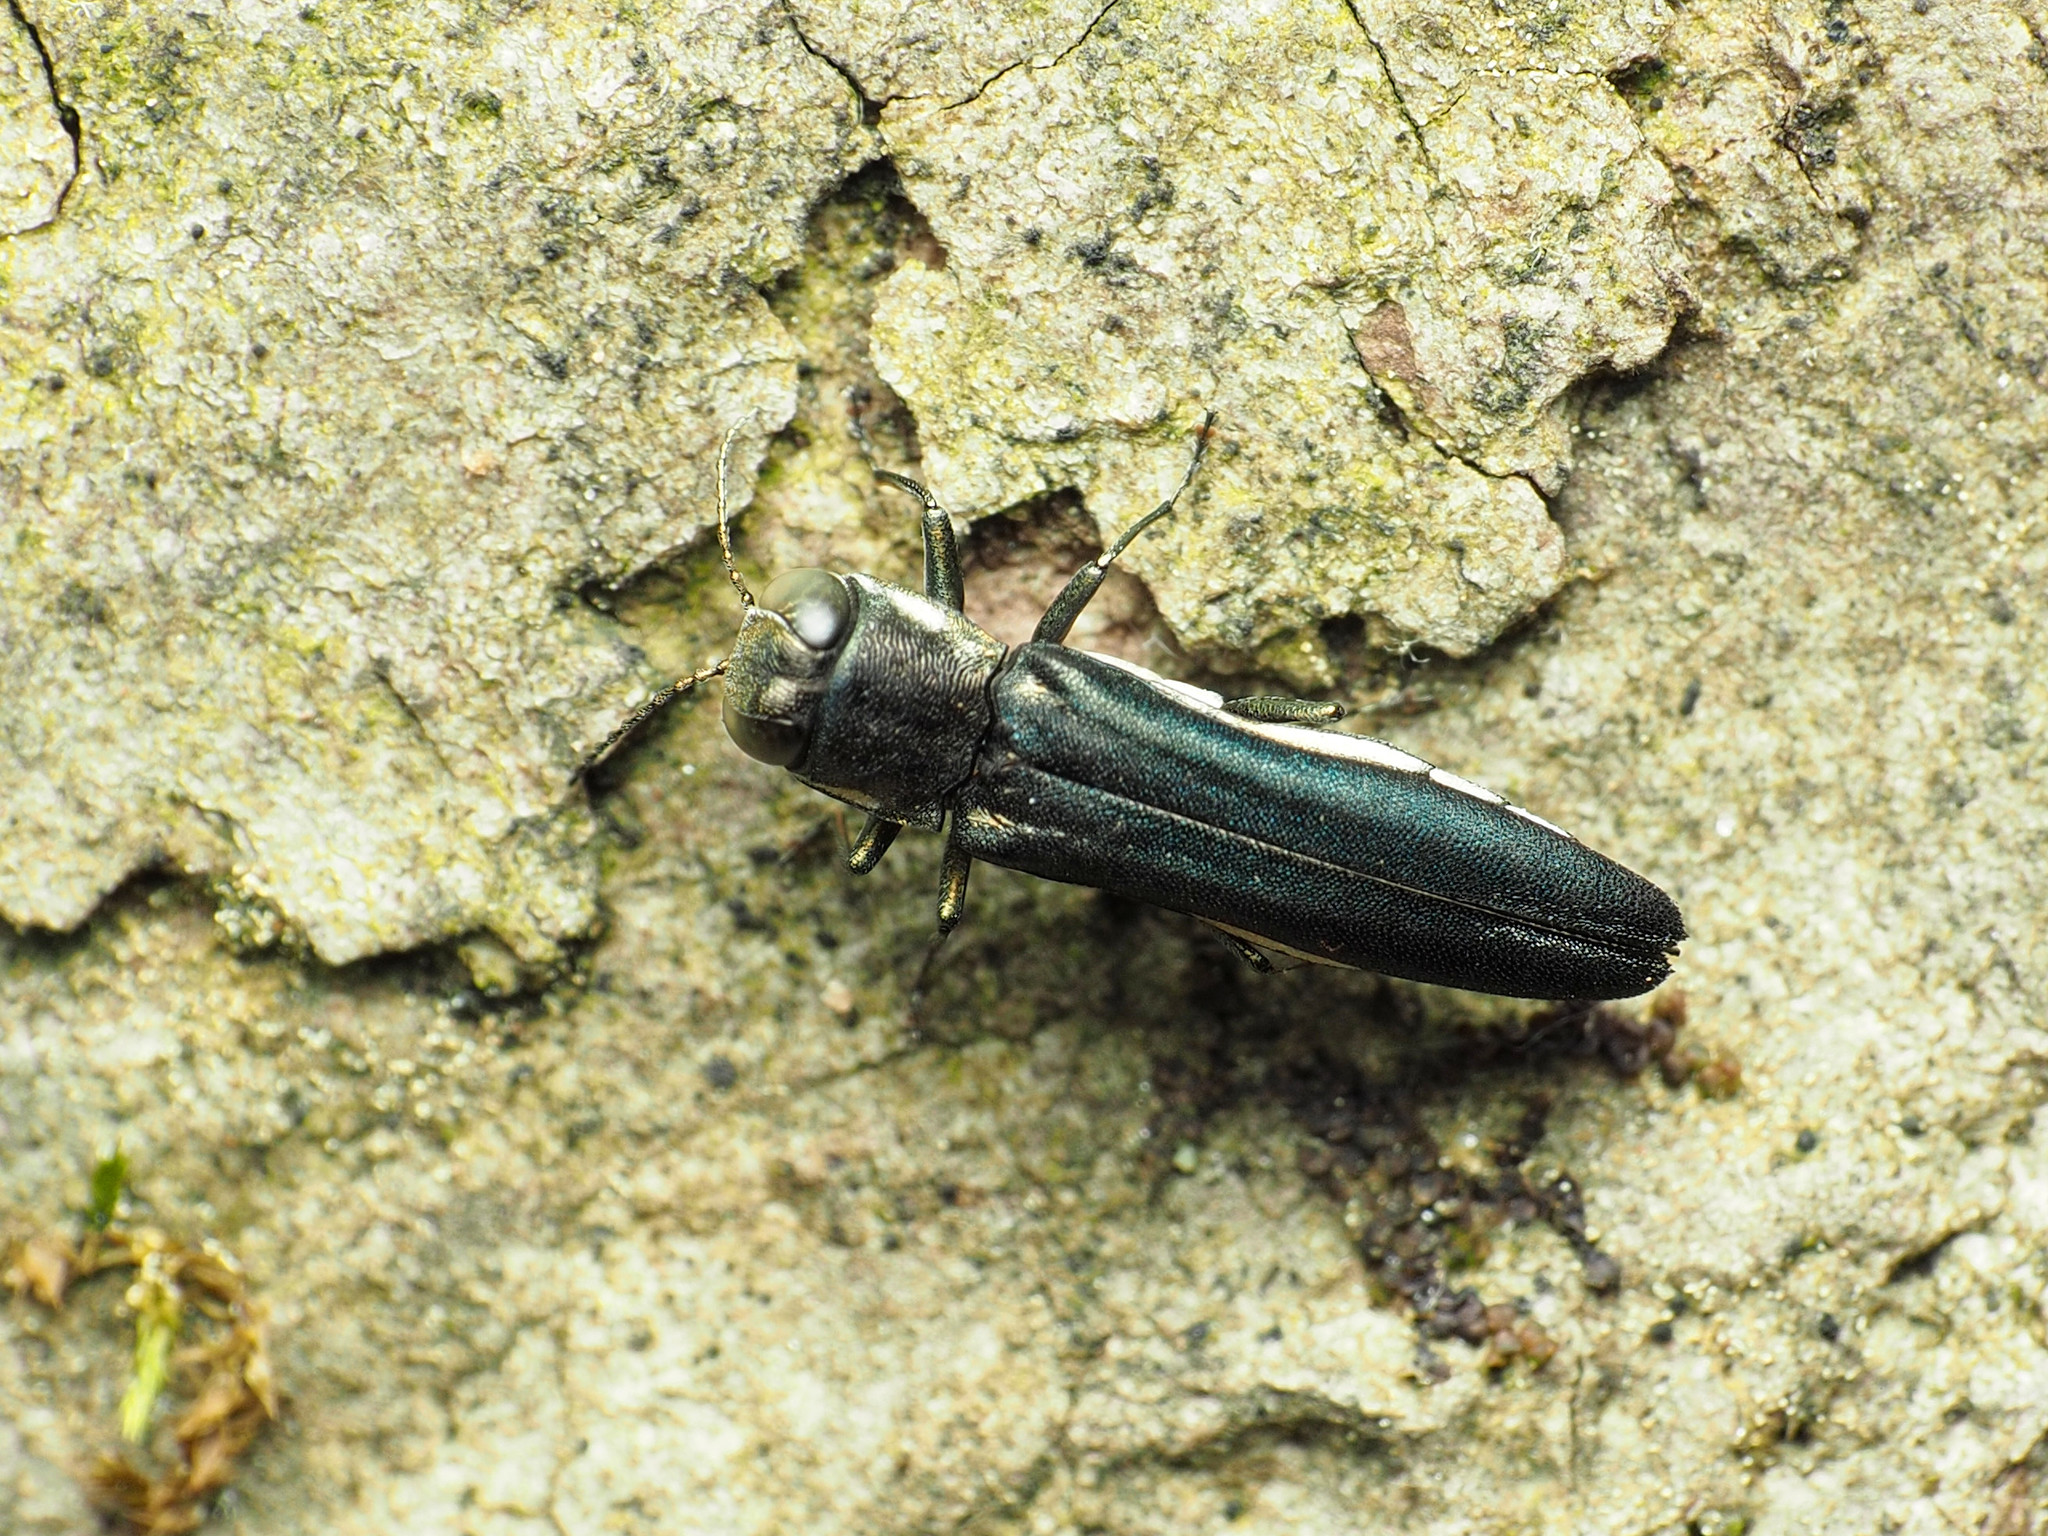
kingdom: Animalia
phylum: Arthropoda
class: Insecta
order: Coleoptera
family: Buprestidae
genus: Agrilus
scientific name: Agrilus carpini
